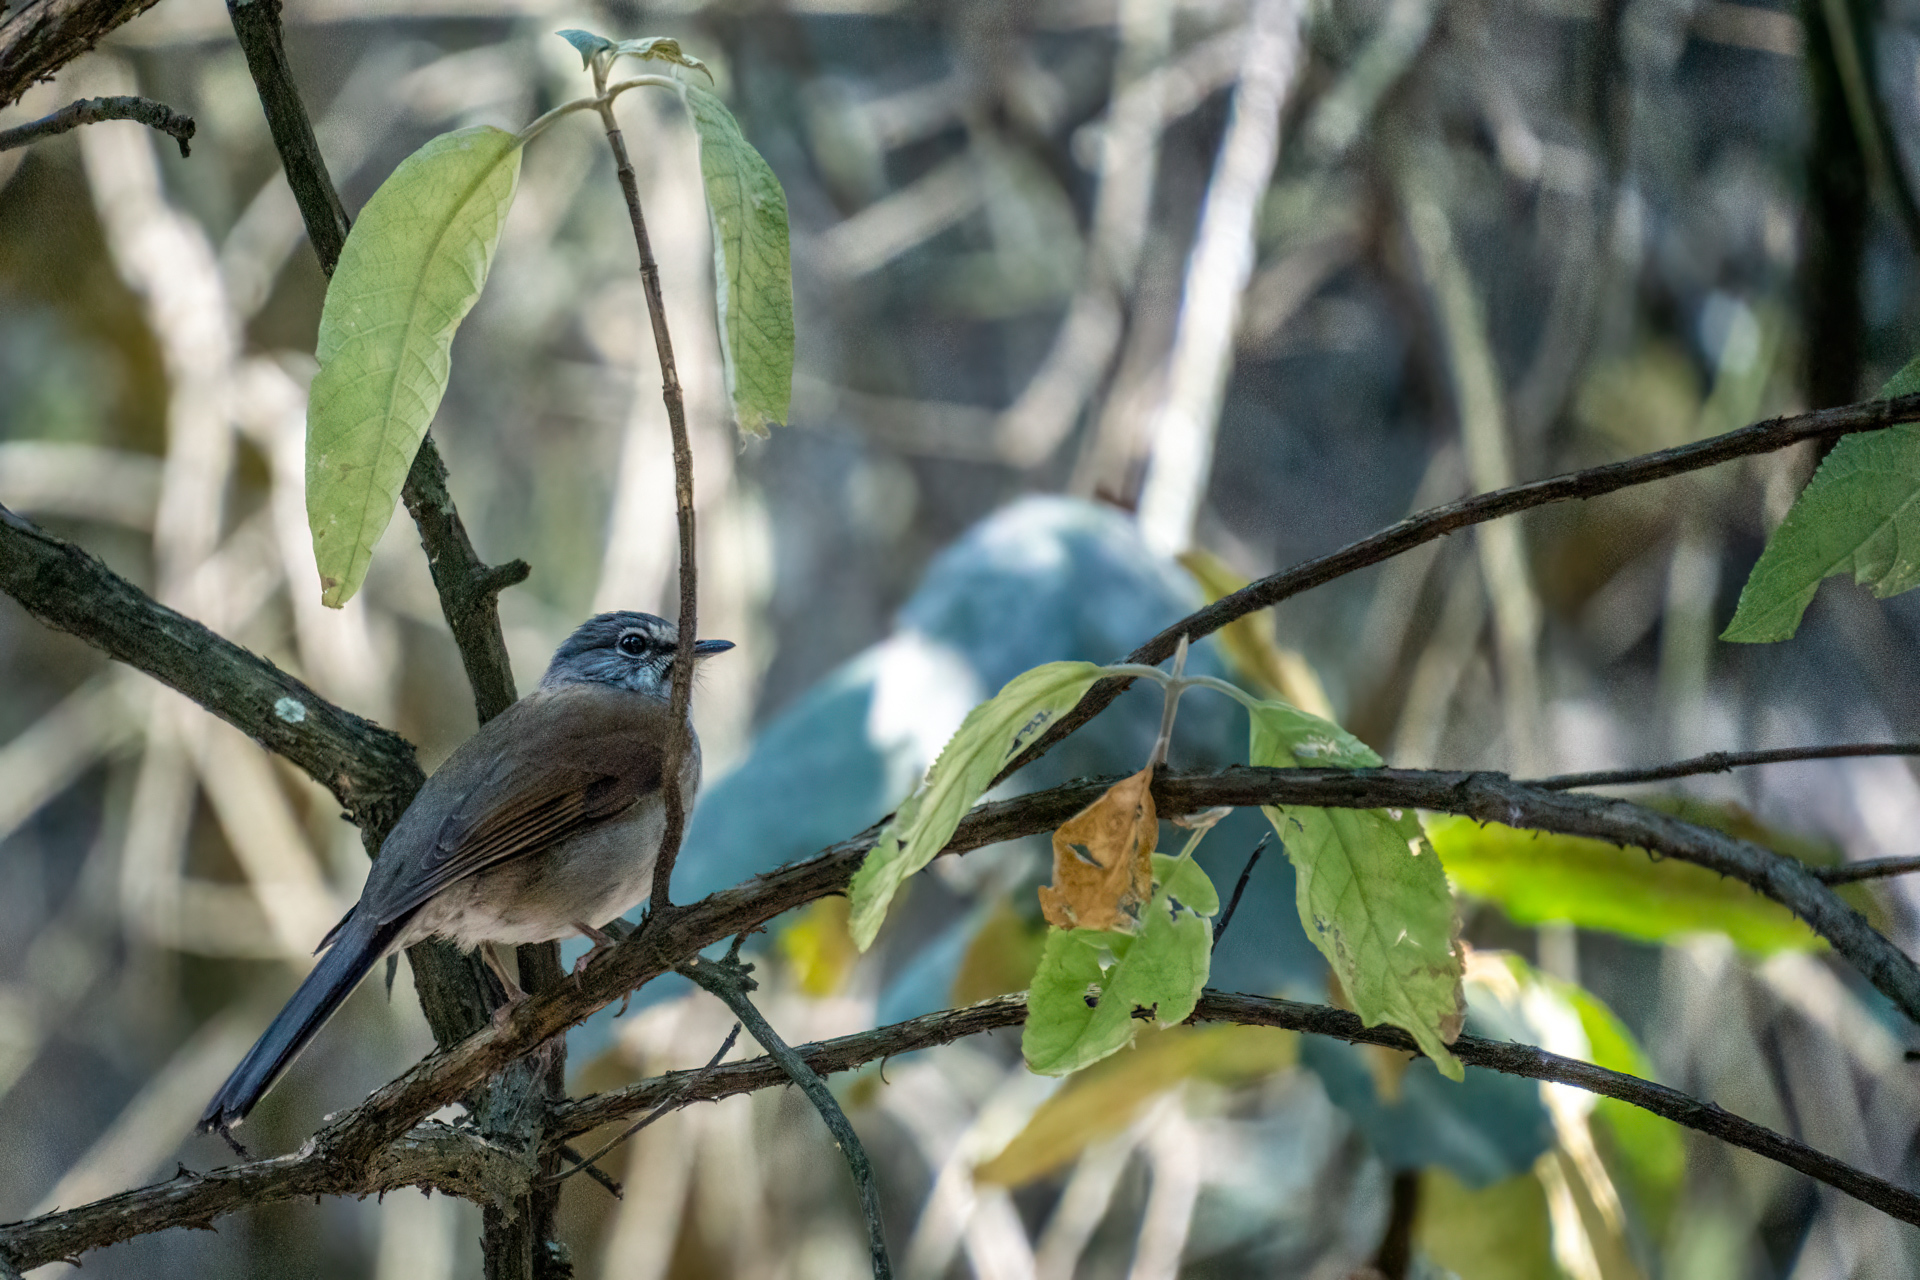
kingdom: Animalia
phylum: Chordata
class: Aves
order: Passeriformes
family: Turdidae
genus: Myadestes
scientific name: Myadestes occidentalis
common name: Brown-backed solitaire
